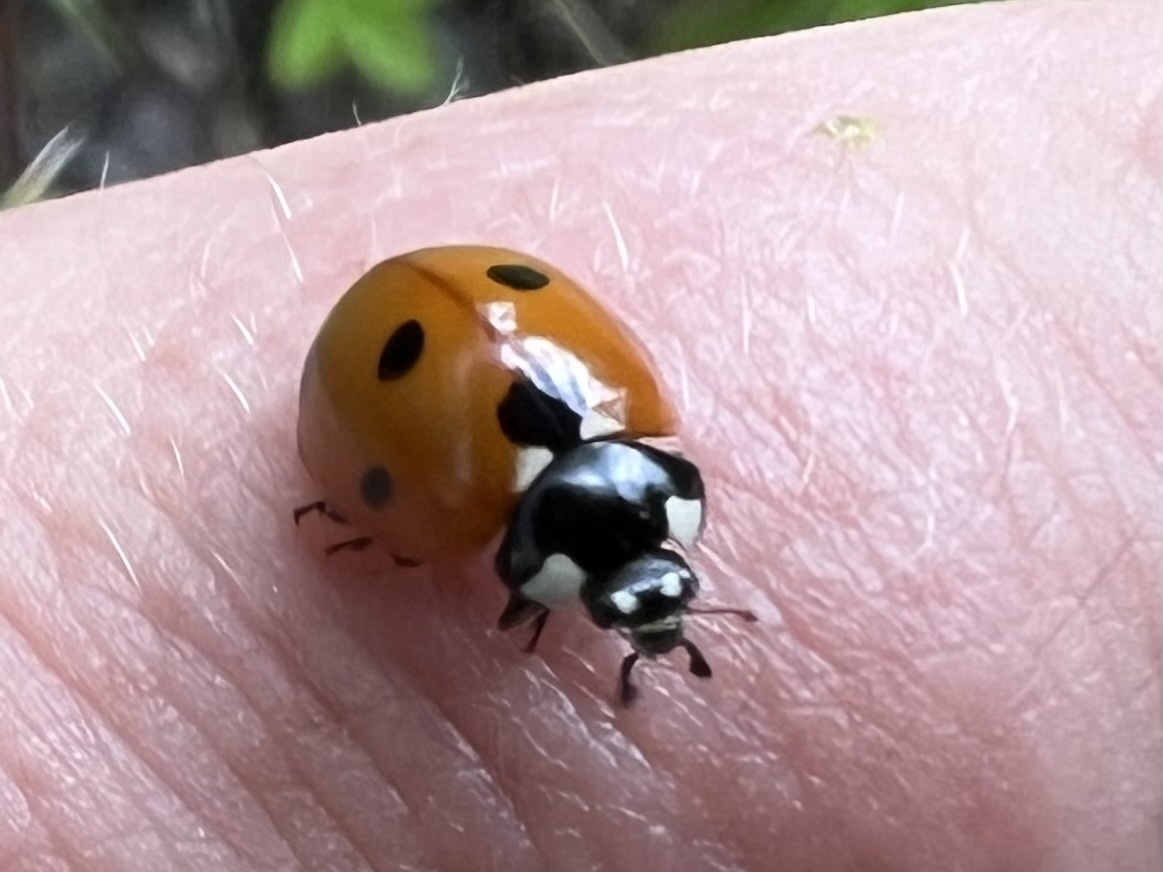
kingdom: Animalia
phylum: Arthropoda
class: Insecta
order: Coleoptera
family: Coccinellidae
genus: Coccinella
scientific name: Coccinella septempunctata
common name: Sevenspotted lady beetle
